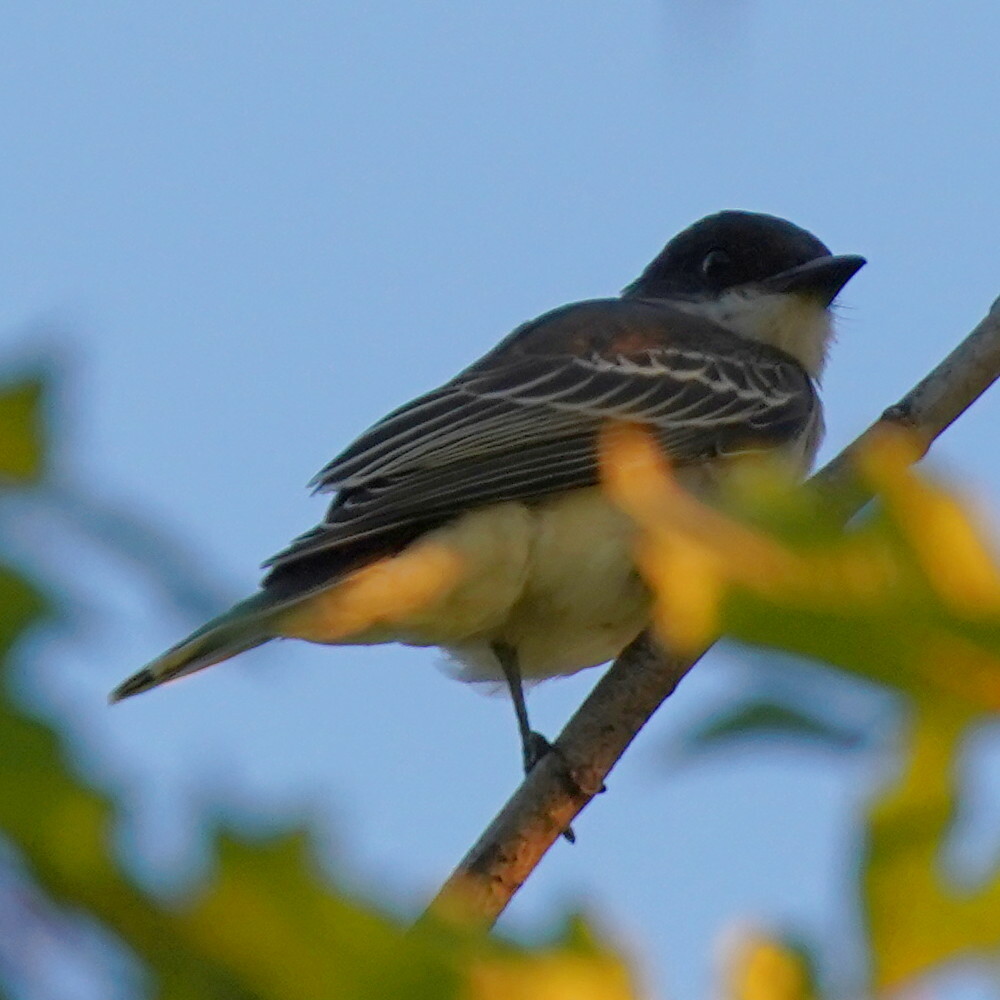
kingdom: Animalia
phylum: Chordata
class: Aves
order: Passeriformes
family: Tyrannidae
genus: Tyrannus
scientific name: Tyrannus tyrannus
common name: Eastern kingbird
